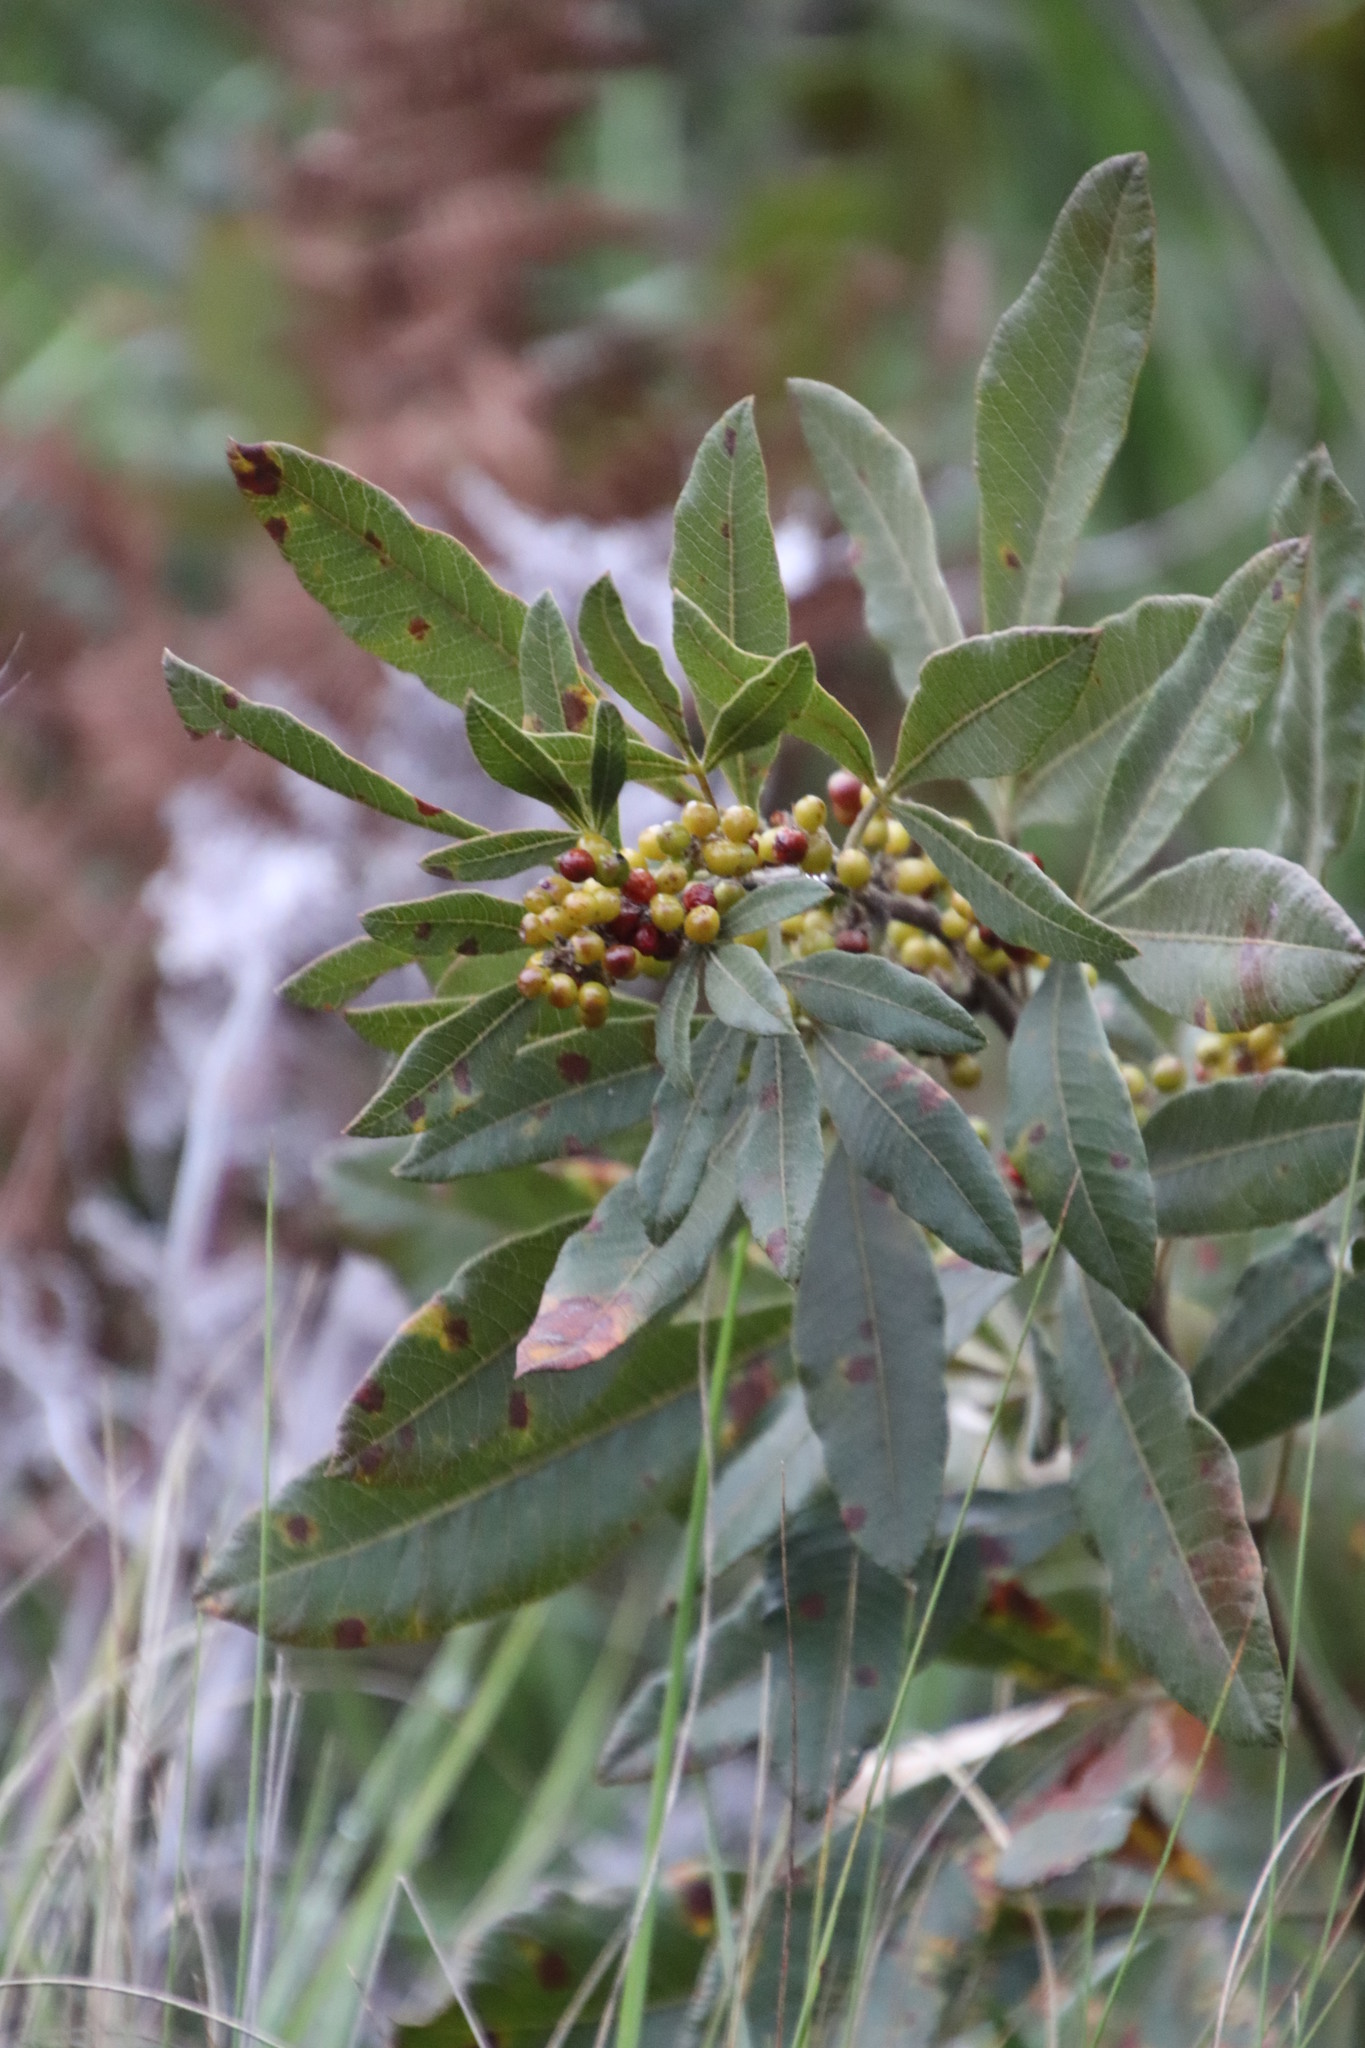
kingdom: Plantae
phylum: Tracheophyta
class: Magnoliopsida
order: Sapindales
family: Anacardiaceae
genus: Searsia
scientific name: Searsia discolor
